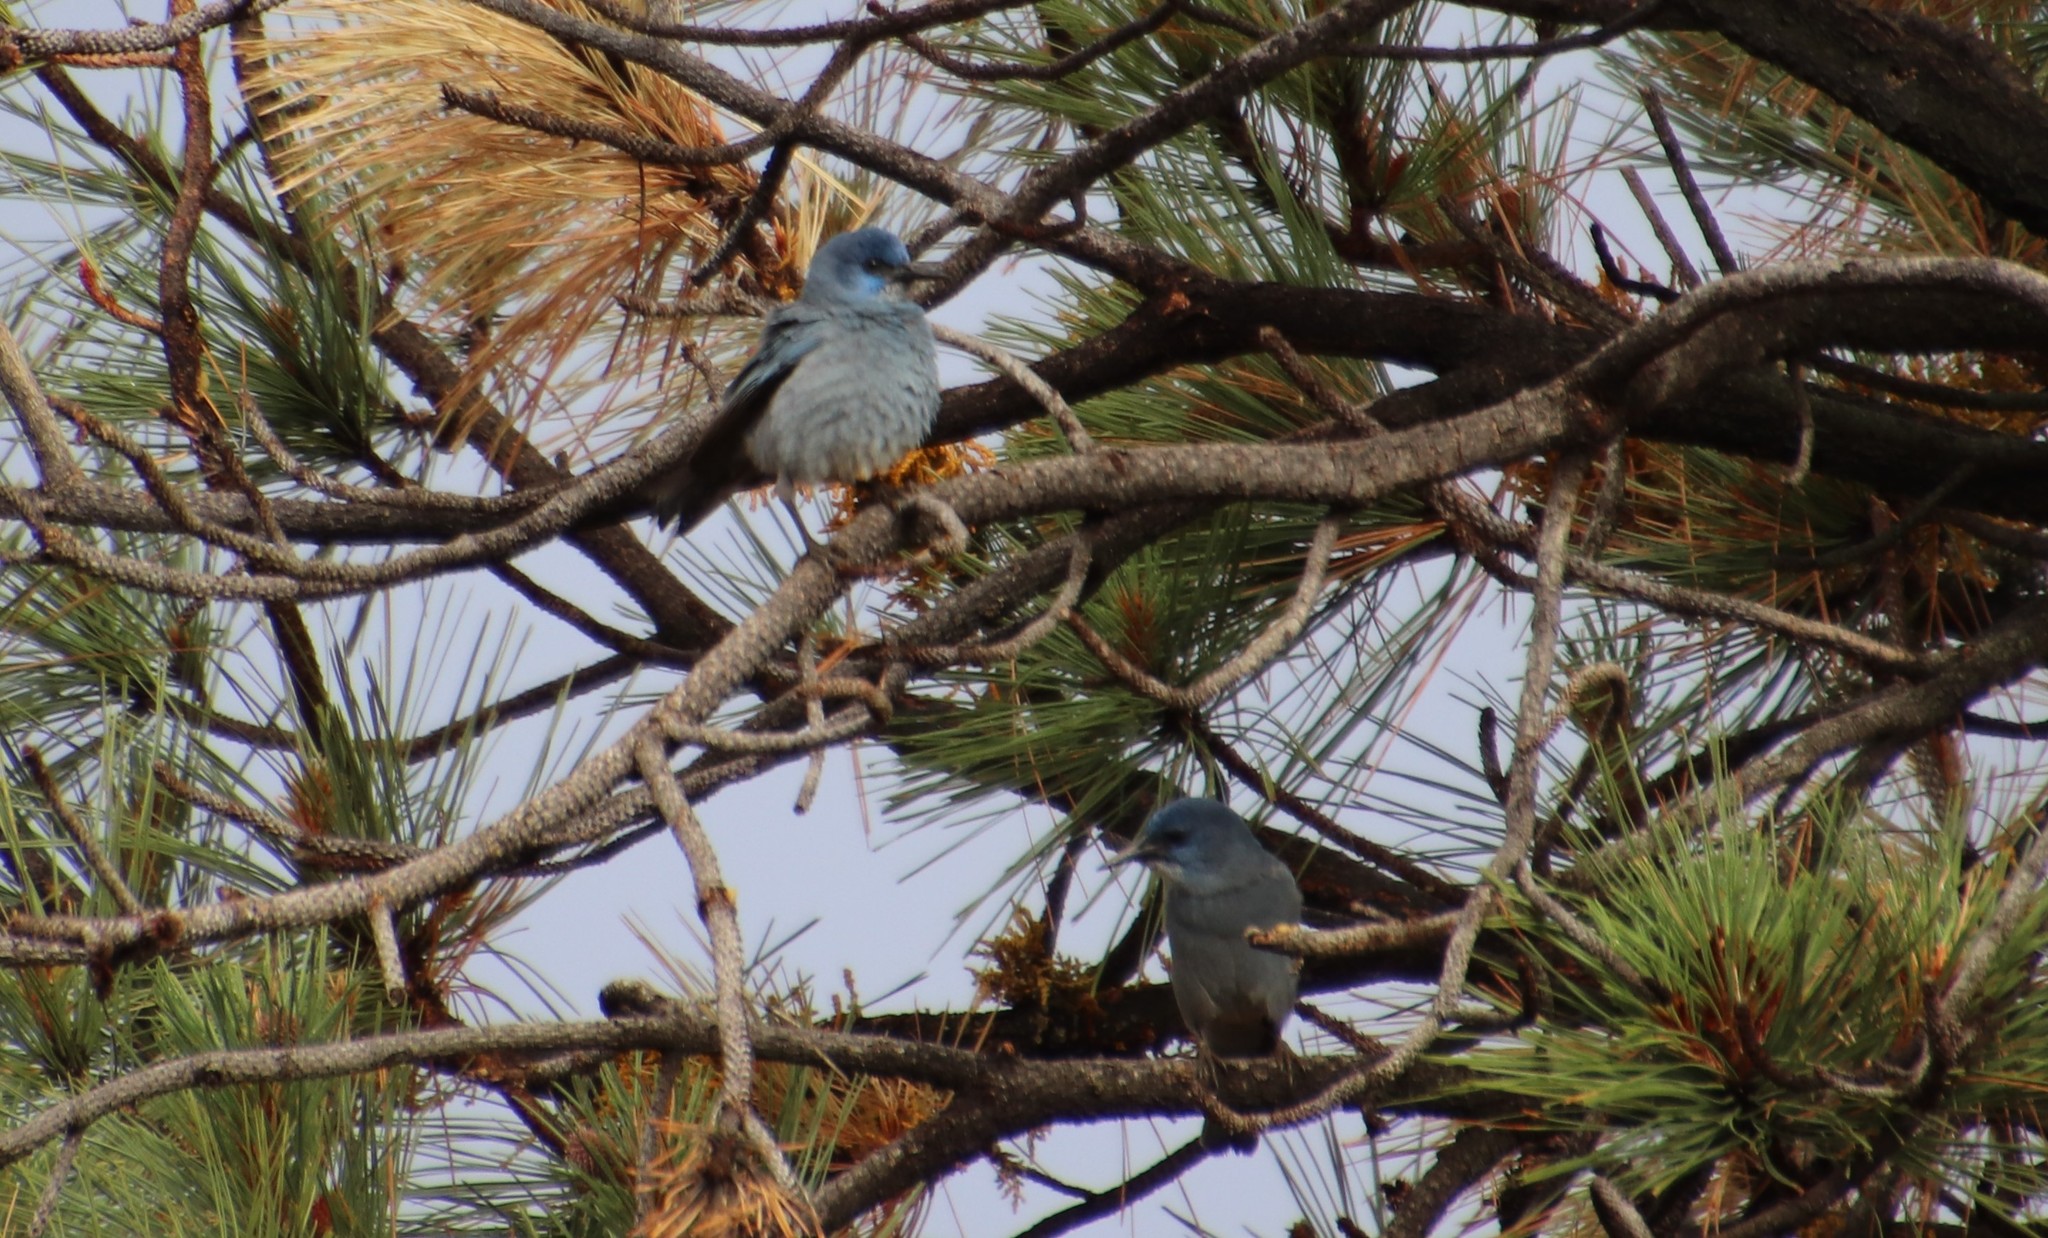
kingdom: Animalia
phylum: Chordata
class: Aves
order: Passeriformes
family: Corvidae
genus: Gymnorhinus
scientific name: Gymnorhinus cyanocephalus
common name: Pinyon jay
